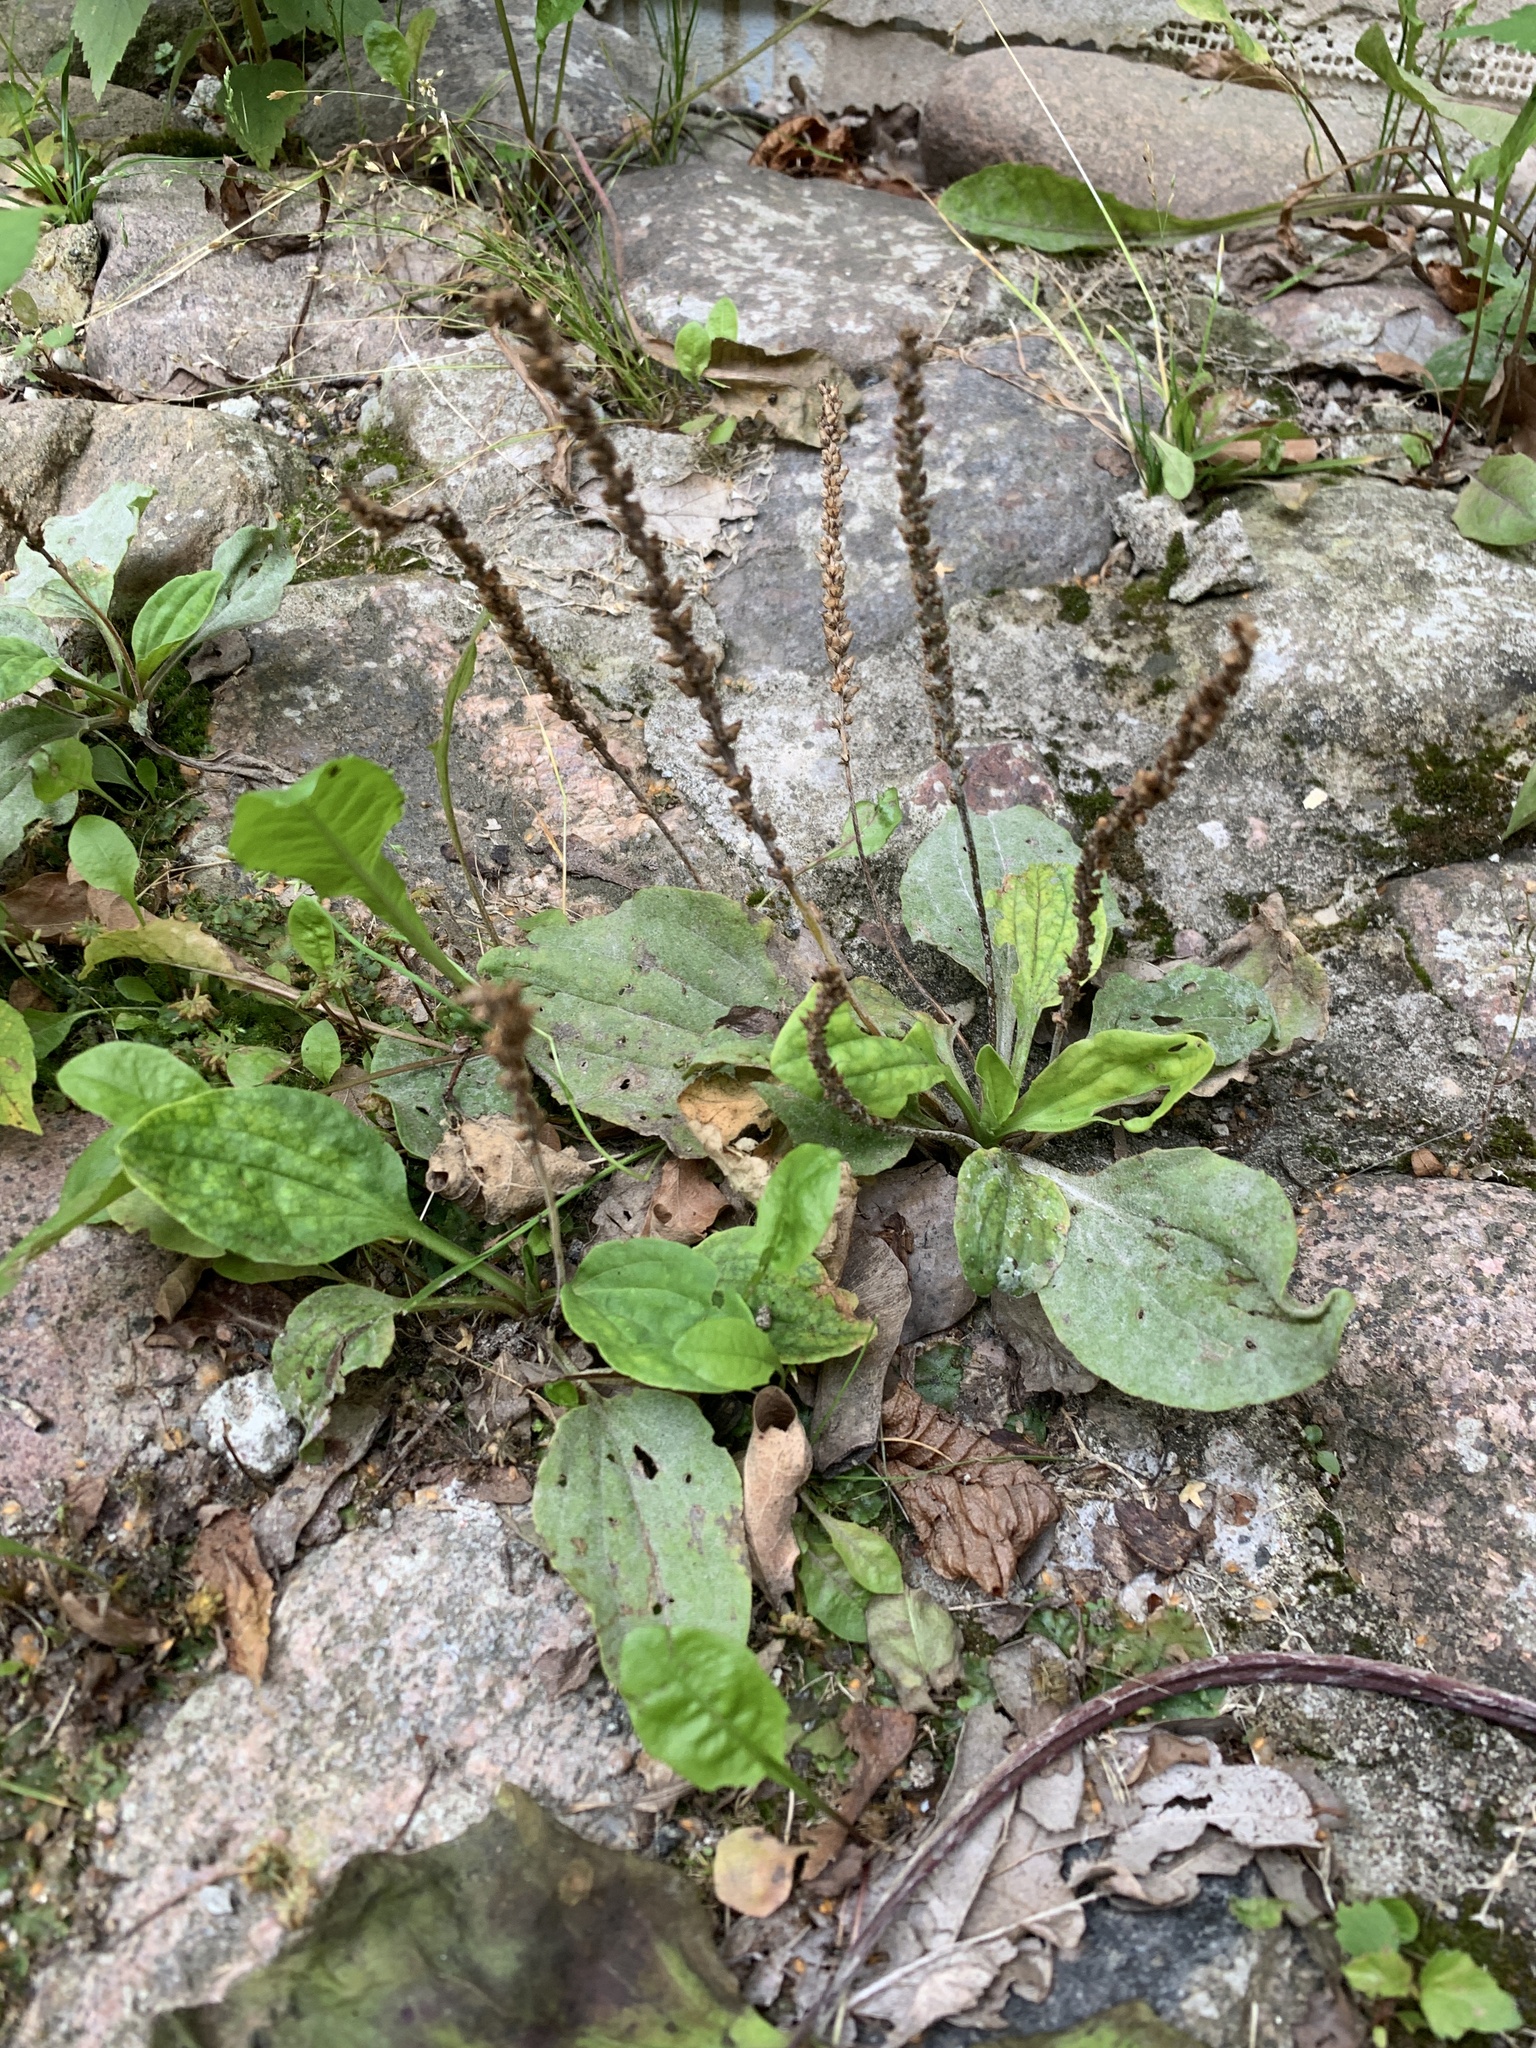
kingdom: Plantae
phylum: Tracheophyta
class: Magnoliopsida
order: Lamiales
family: Plantaginaceae
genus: Plantago
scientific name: Plantago major
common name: Common plantain
